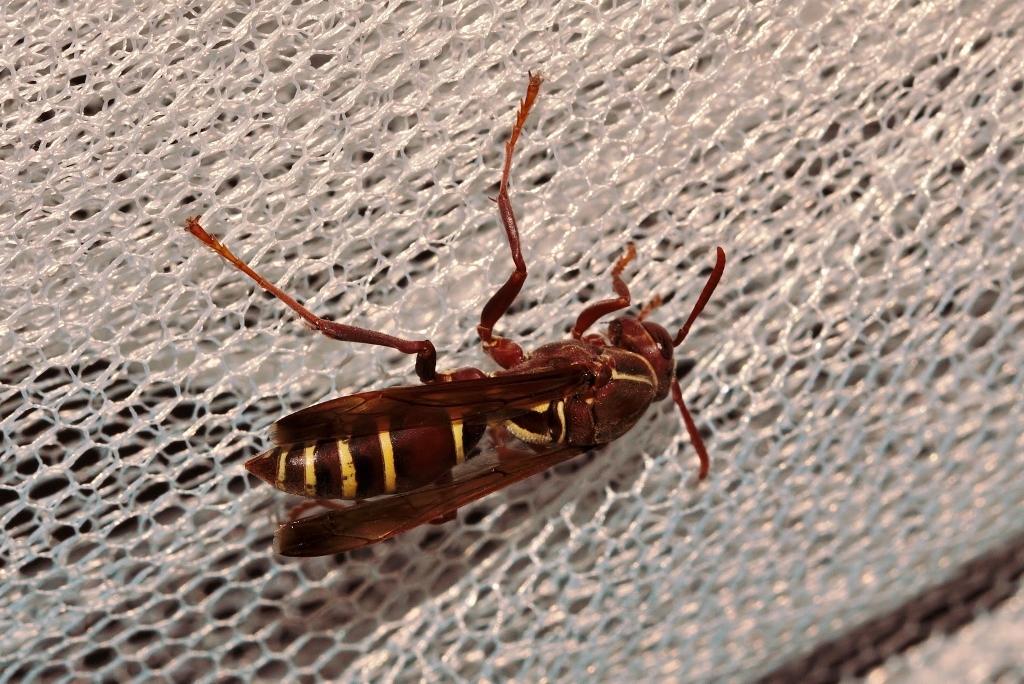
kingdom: Animalia
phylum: Arthropoda
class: Insecta
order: Hymenoptera
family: Eumenidae
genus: Polistes
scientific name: Polistes fastidiosus
